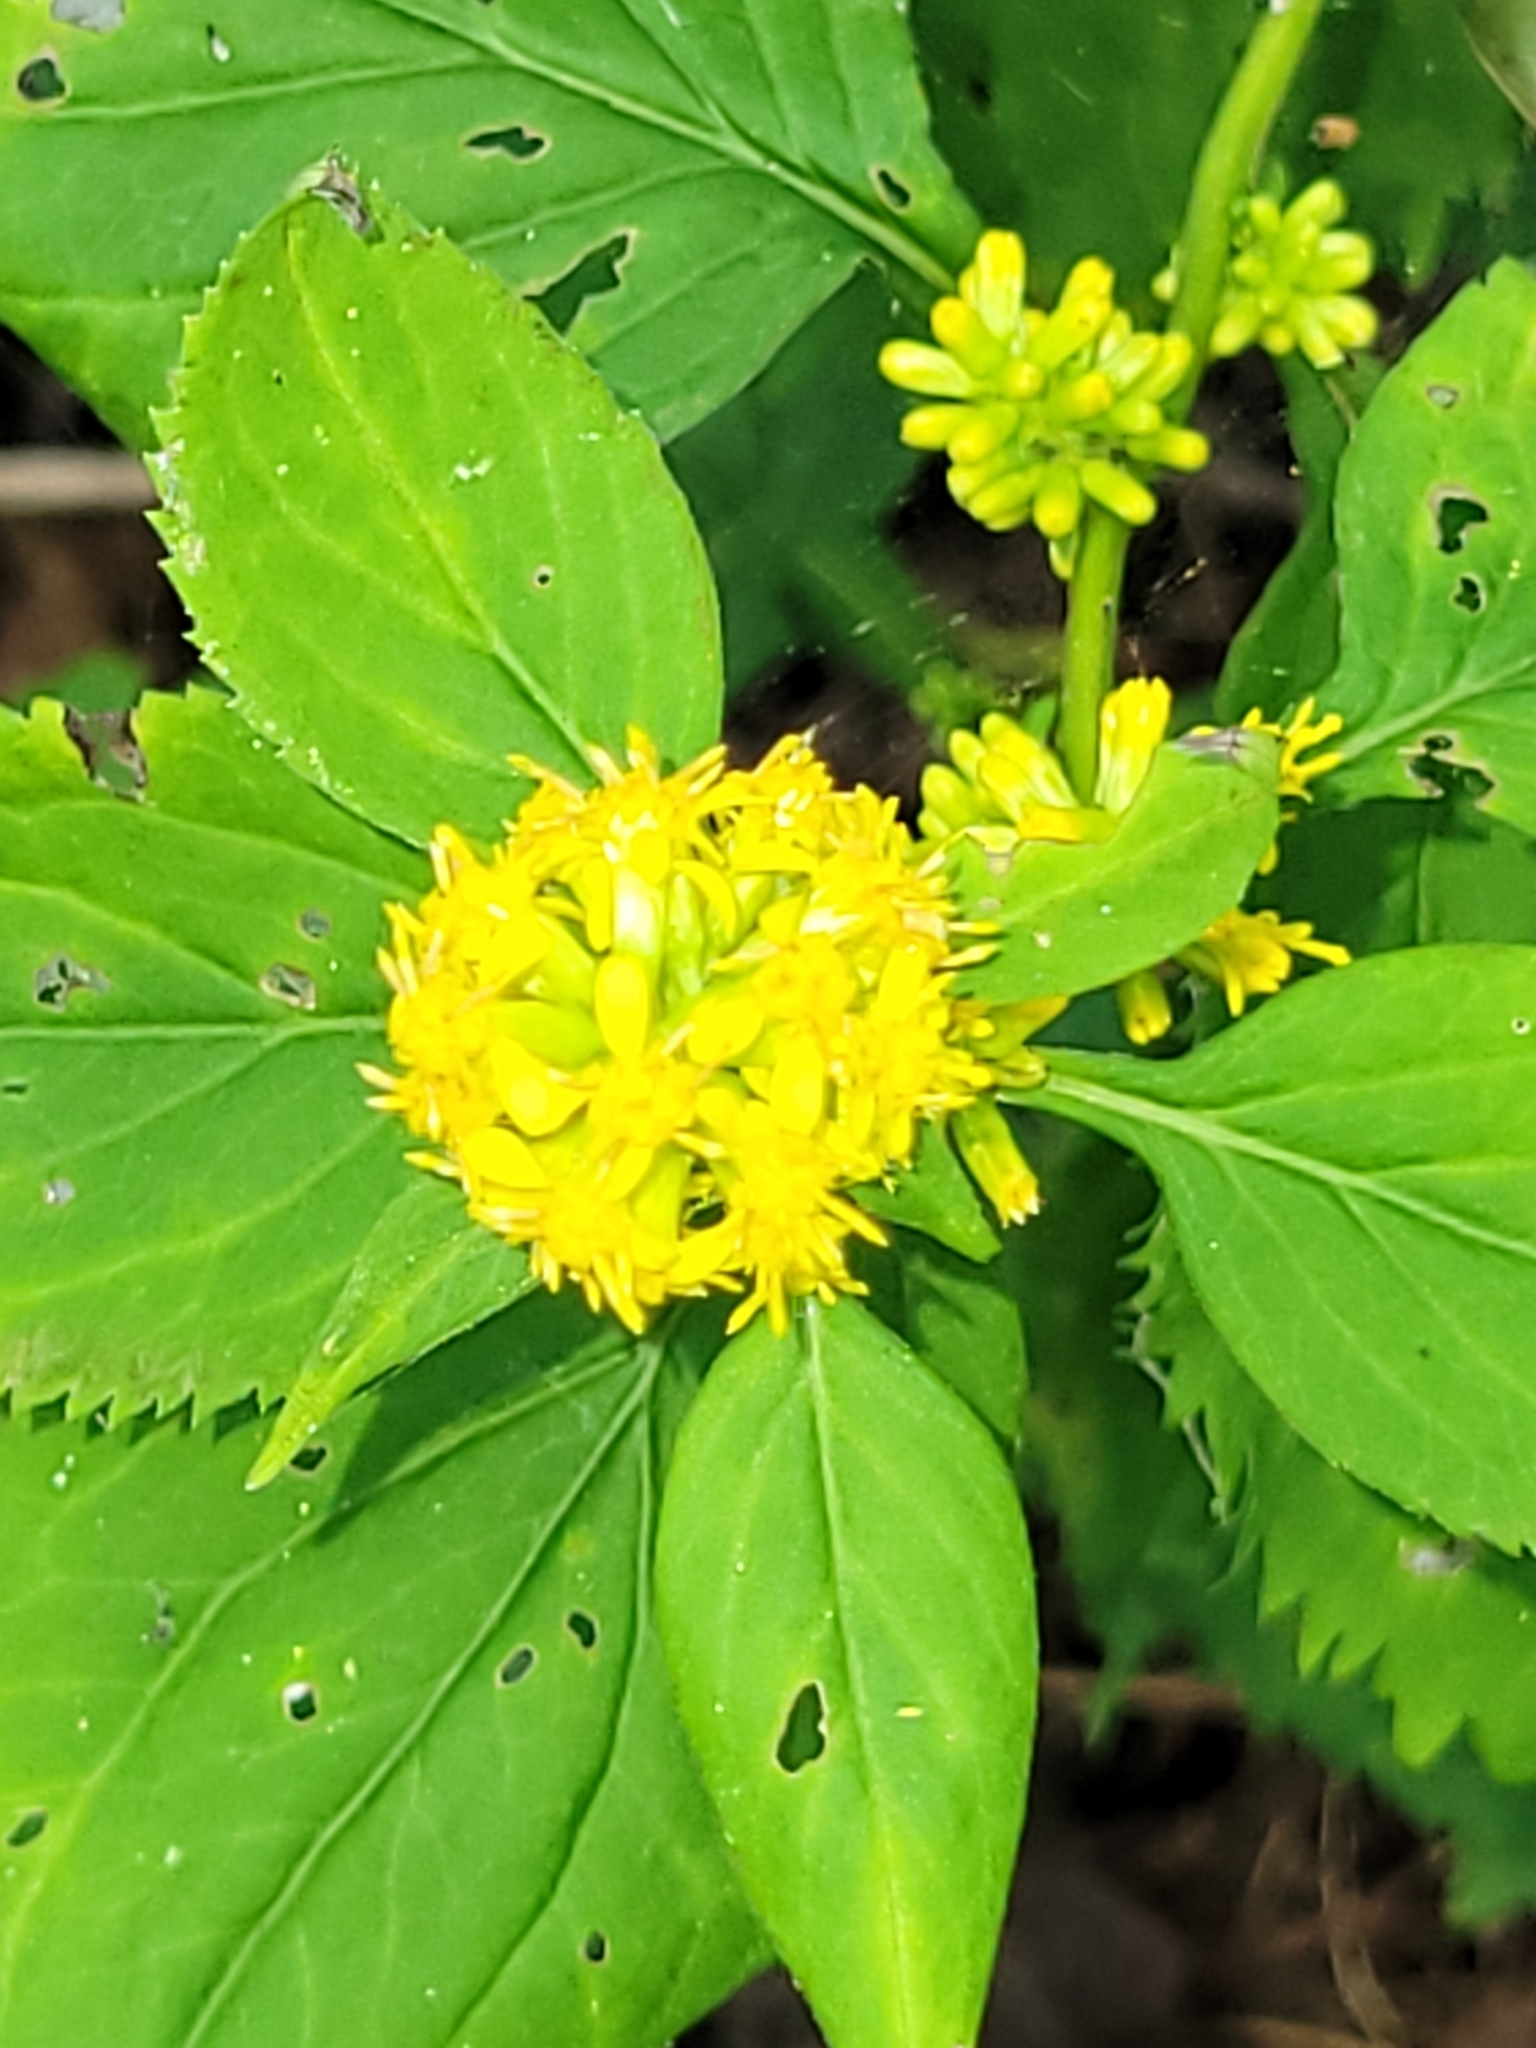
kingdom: Plantae
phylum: Tracheophyta
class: Magnoliopsida
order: Asterales
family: Asteraceae
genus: Solidago
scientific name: Solidago flexicaulis
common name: Zig-zag goldenrod
